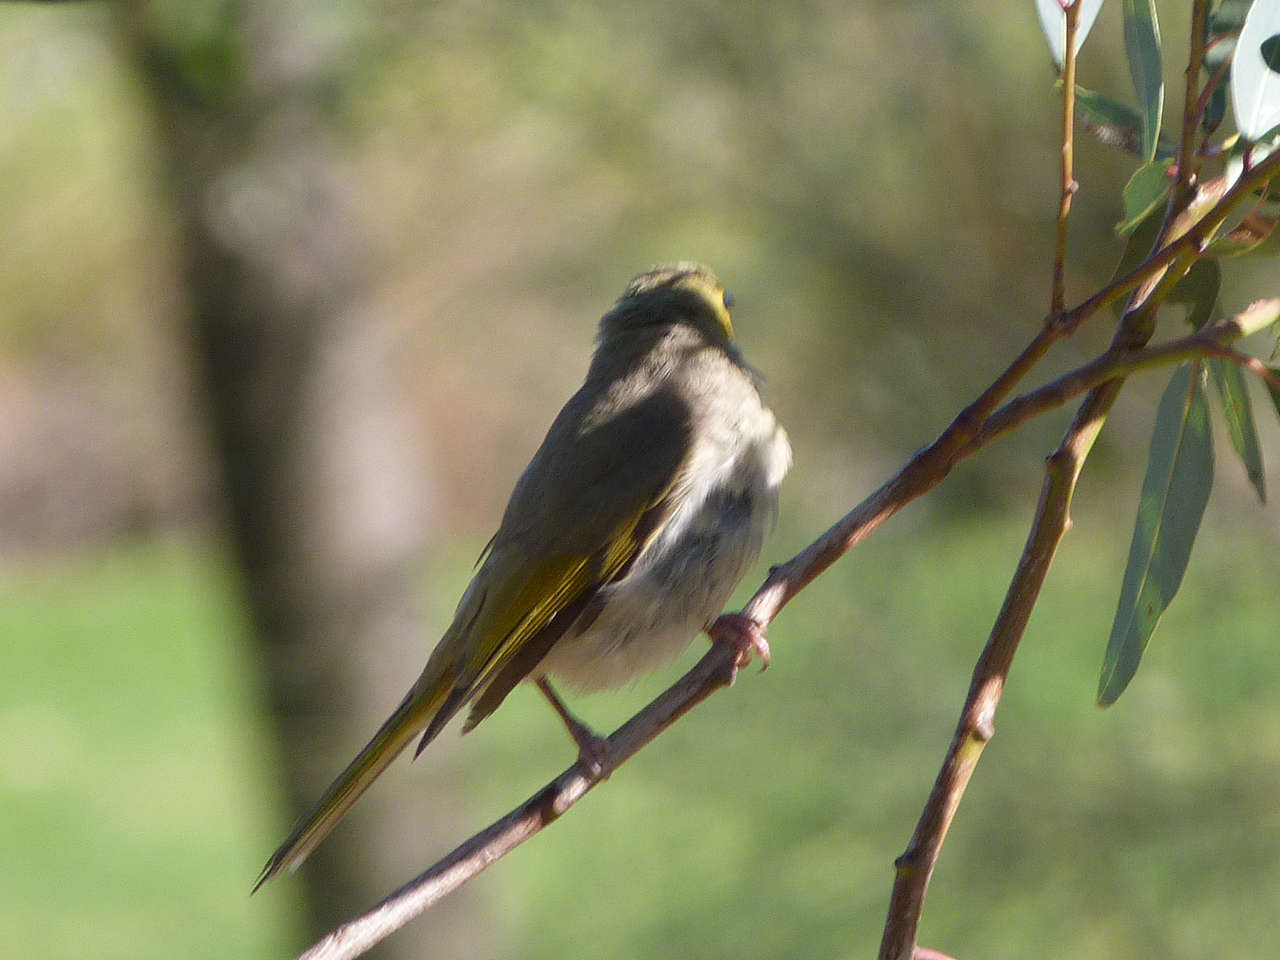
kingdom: Animalia
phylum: Chordata
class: Aves
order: Passeriformes
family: Meliphagidae
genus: Ptilotula
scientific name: Ptilotula penicillata
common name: White-plumed honeyeater
